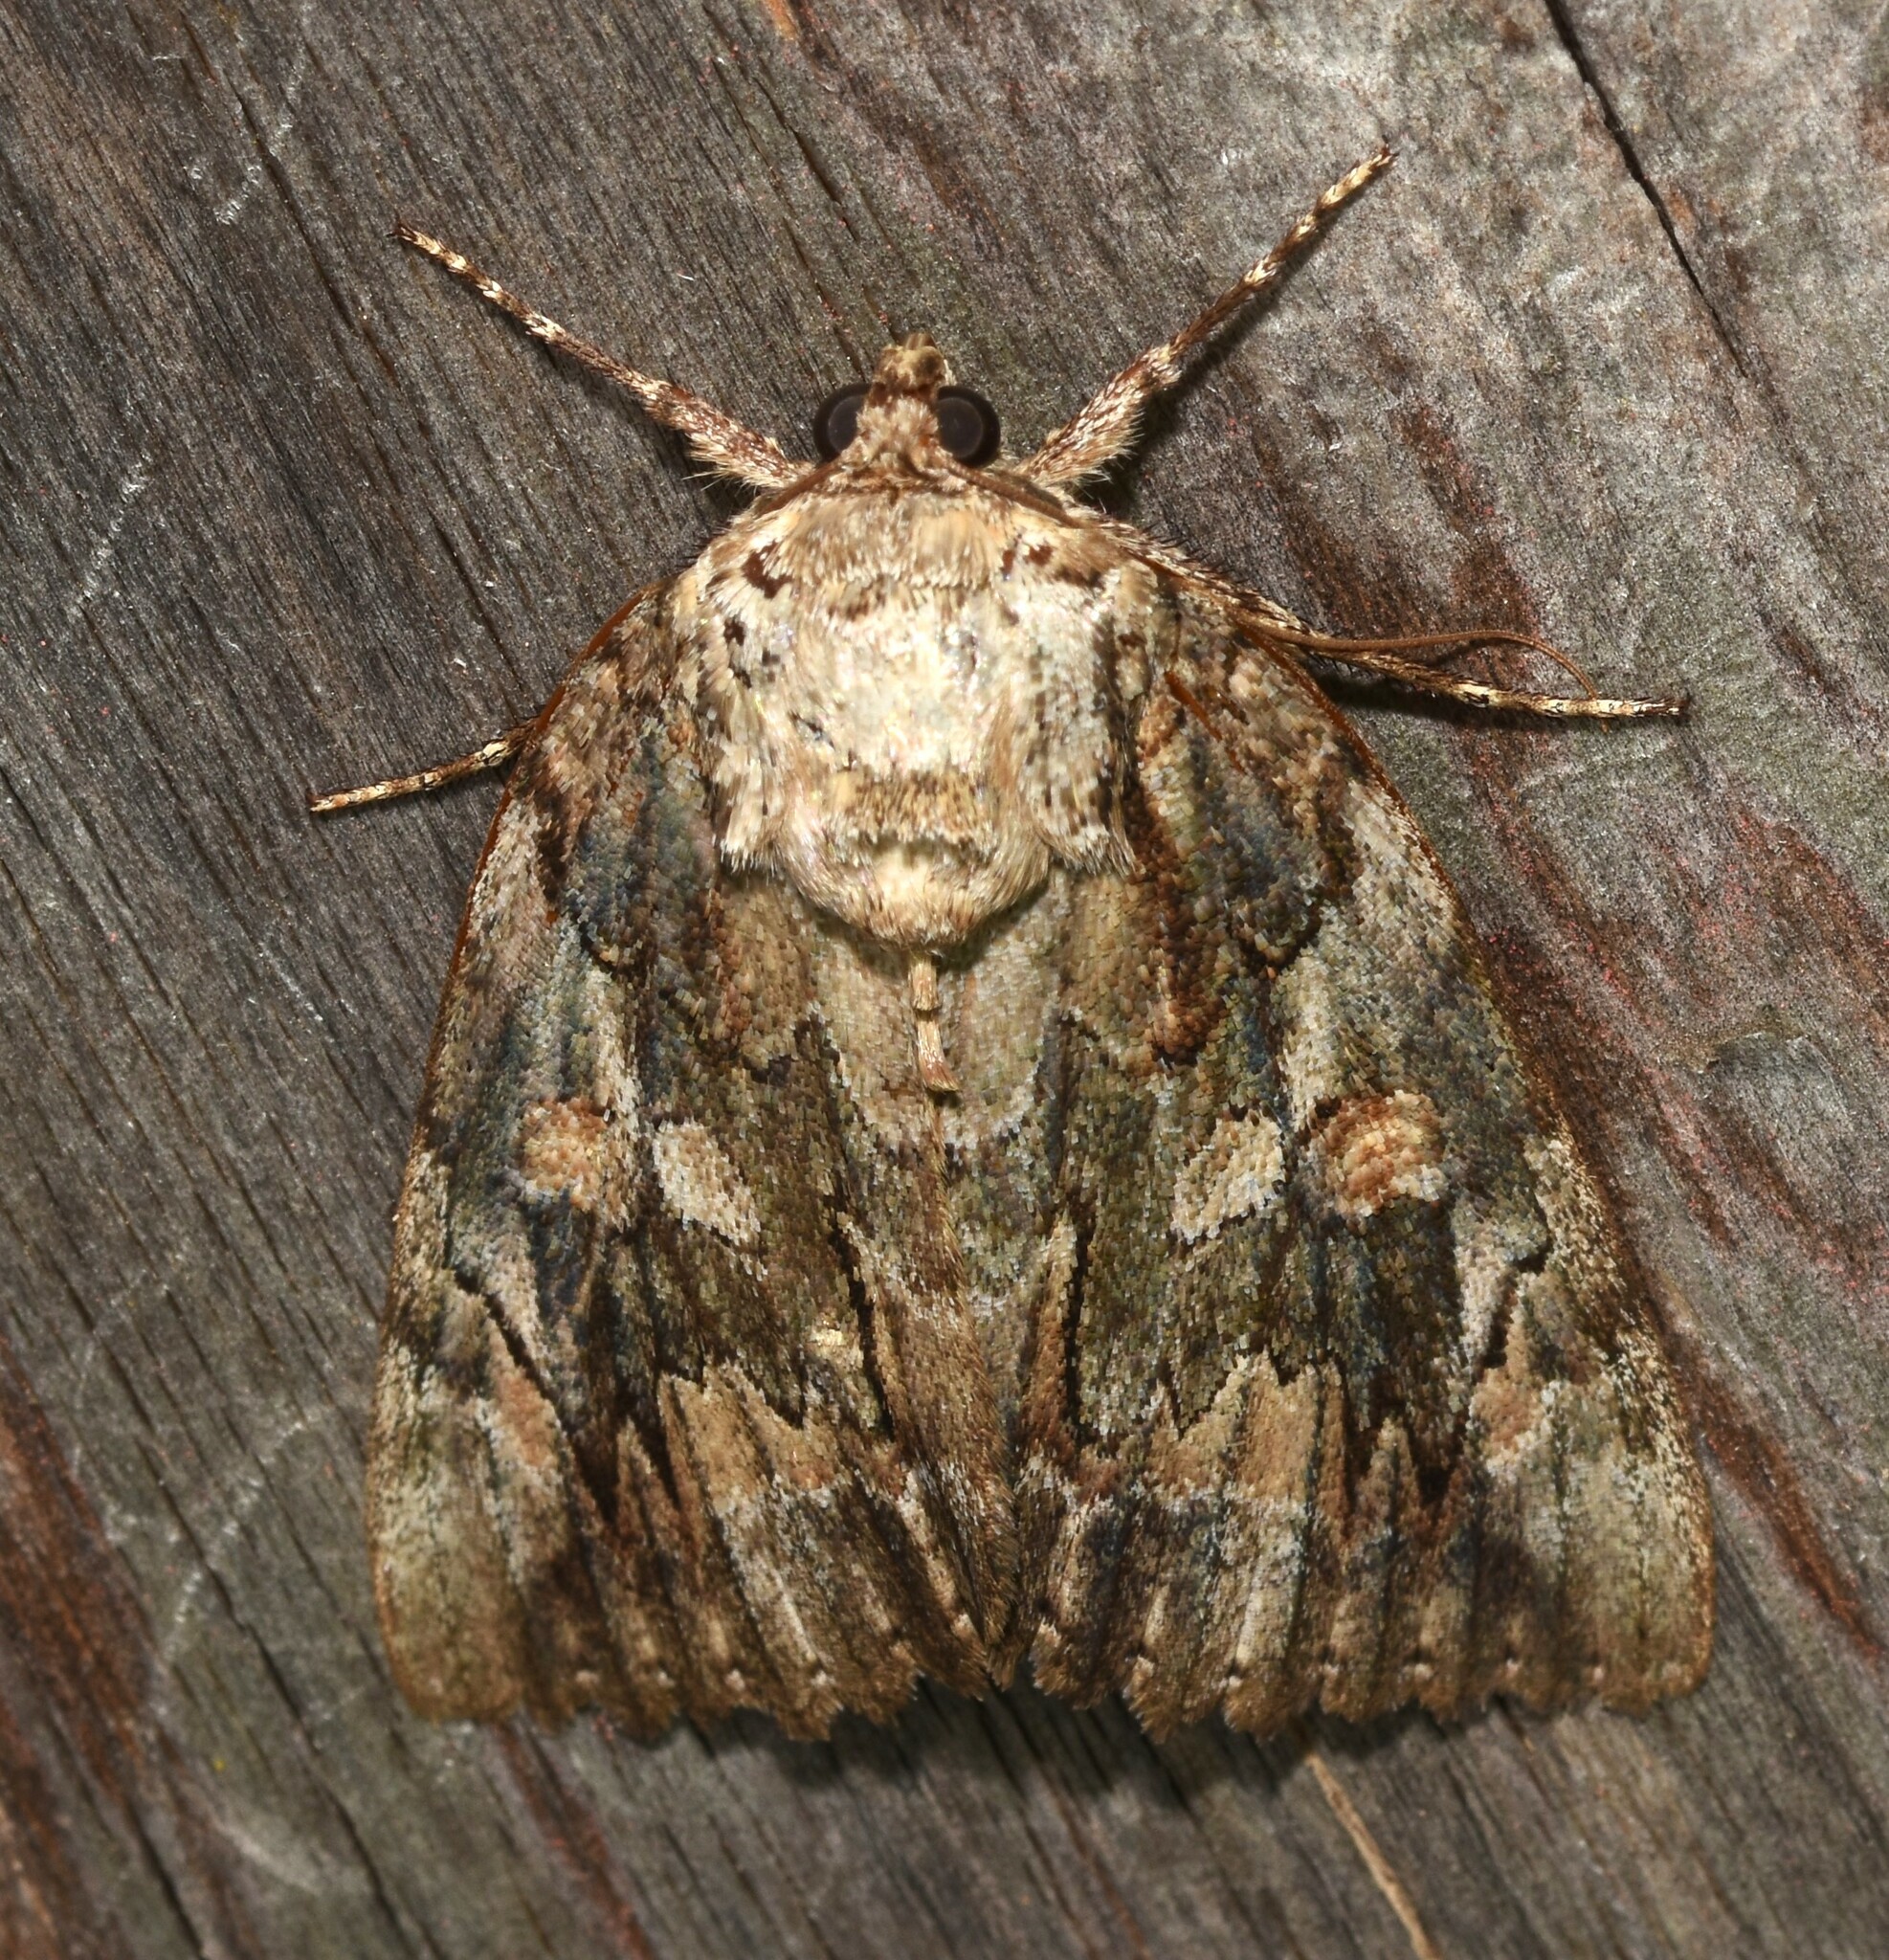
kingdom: Animalia
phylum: Arthropoda
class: Insecta
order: Lepidoptera
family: Erebidae
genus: Catocala
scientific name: Catocala neogama
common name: Bride underwing
